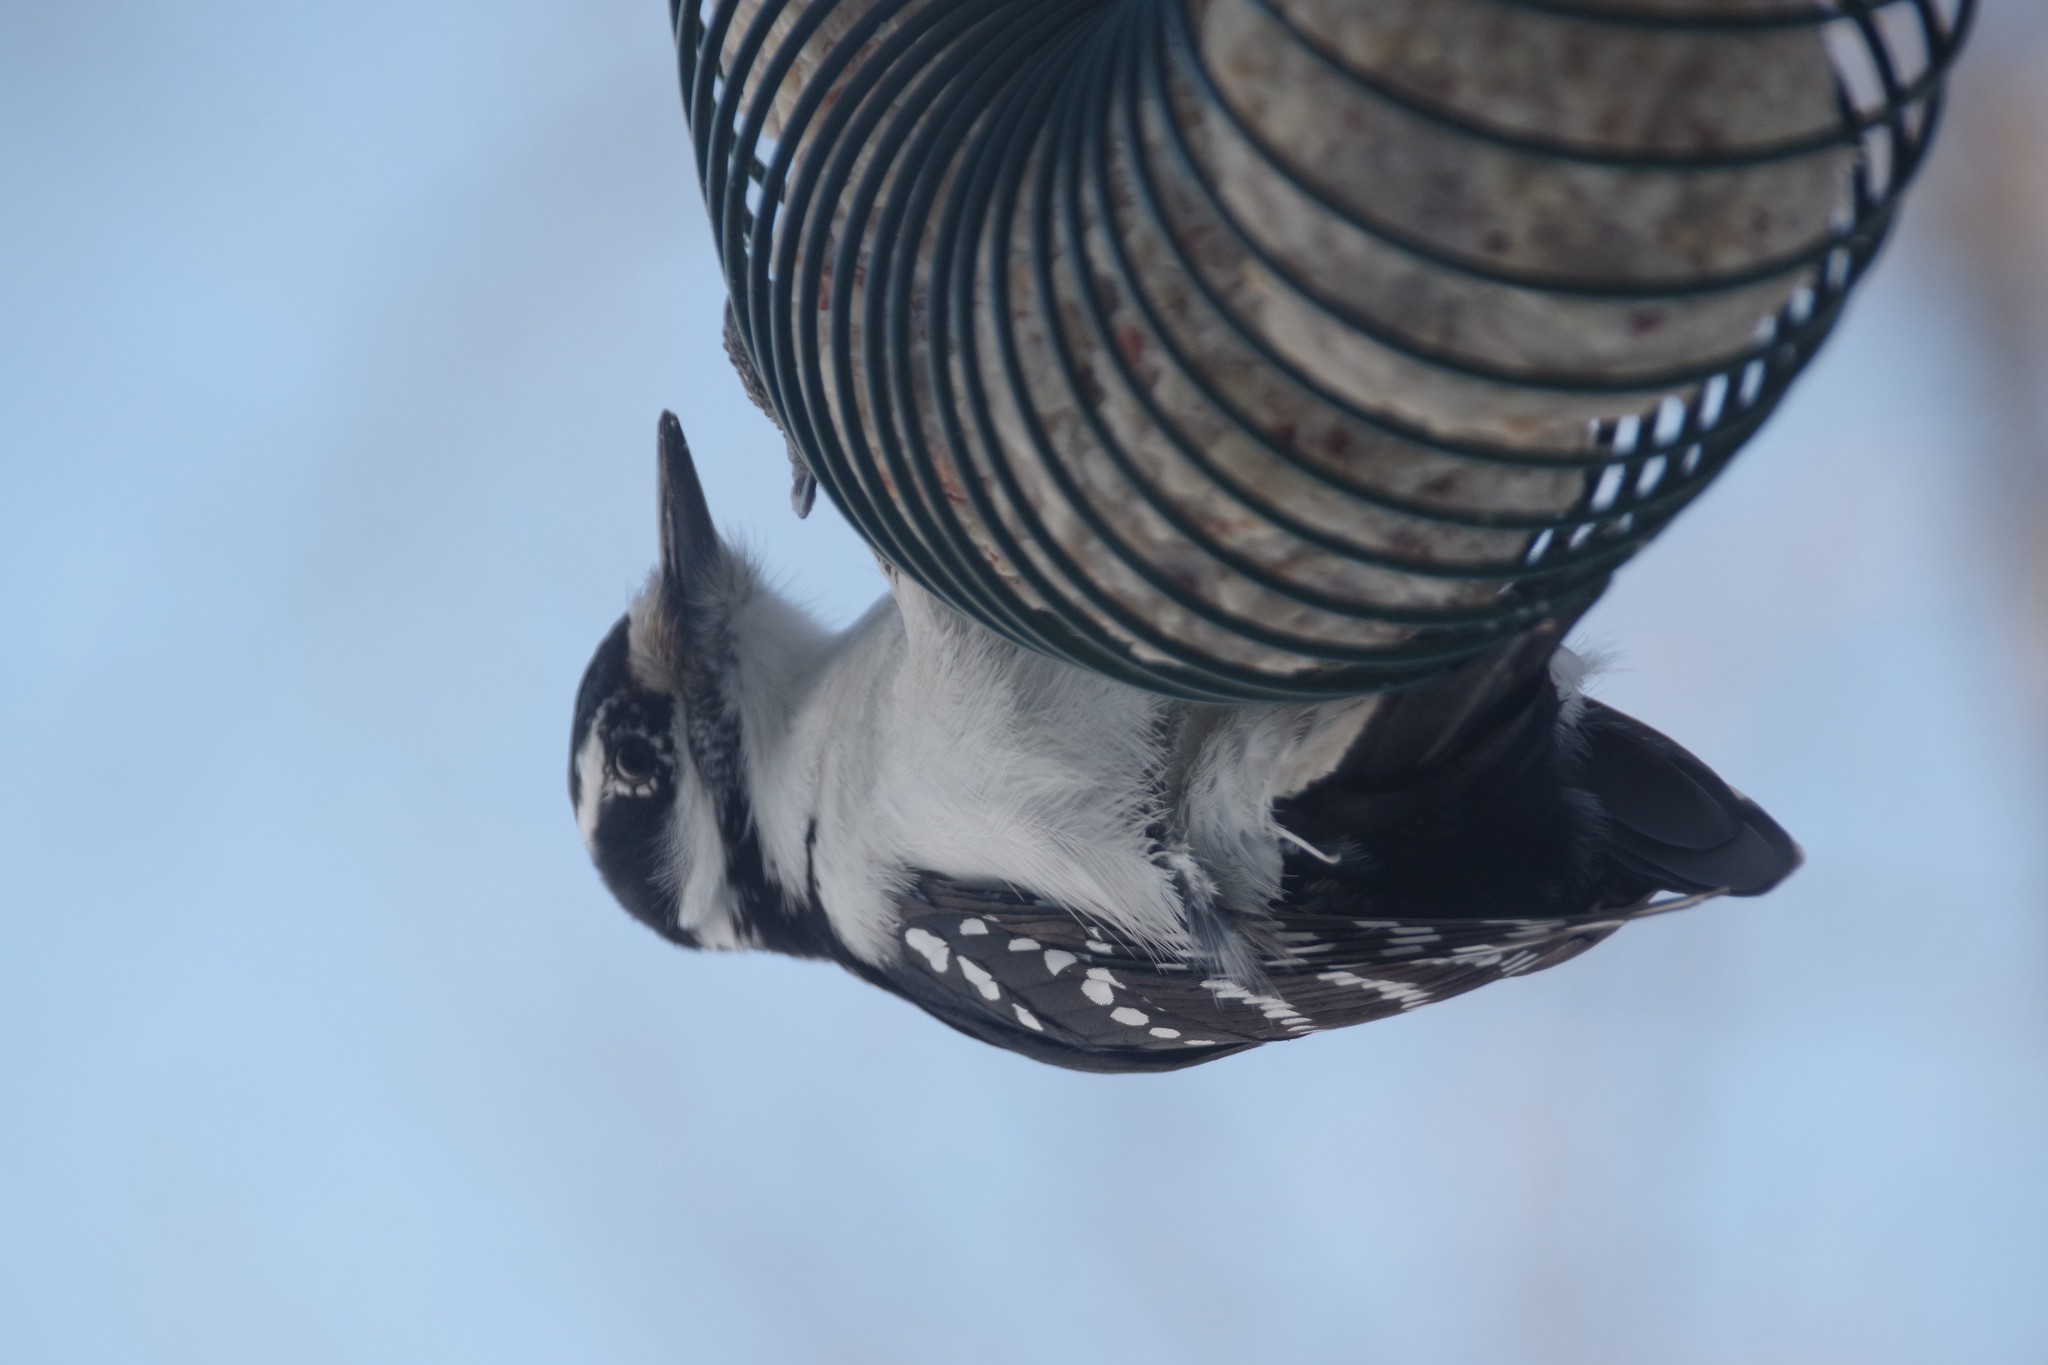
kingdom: Animalia
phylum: Chordata
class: Aves
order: Piciformes
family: Picidae
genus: Leuconotopicus
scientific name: Leuconotopicus villosus
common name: Hairy woodpecker
